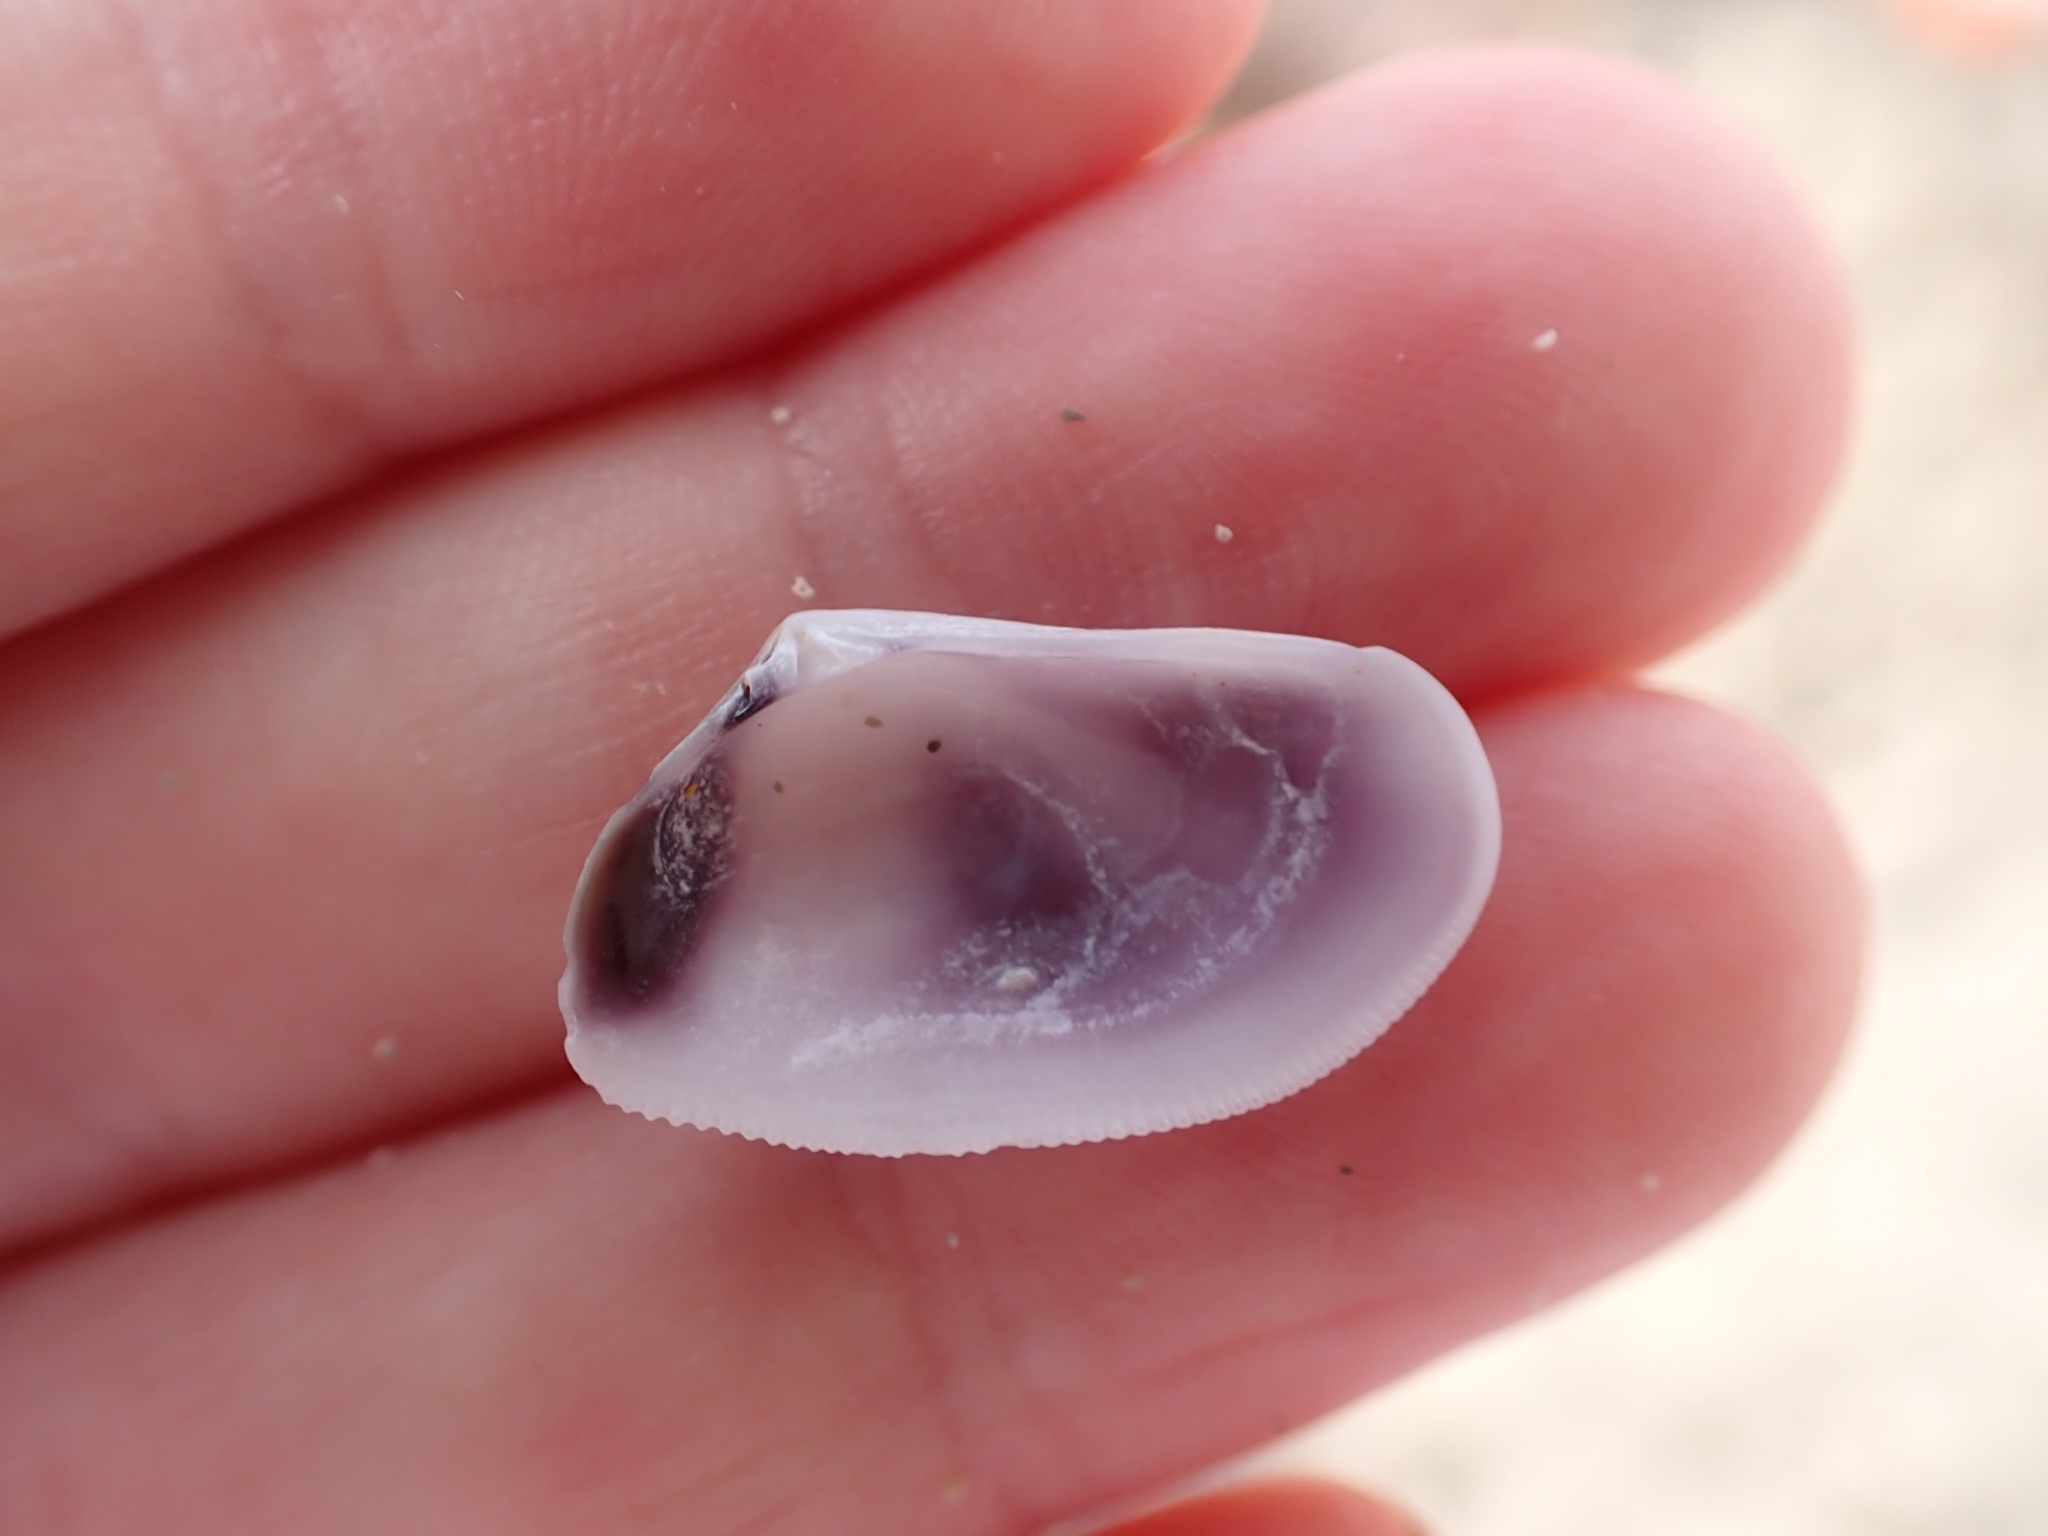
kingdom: Animalia
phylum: Mollusca
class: Bivalvia
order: Cardiida
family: Donacidae
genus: Donax
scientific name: Donax trunculus
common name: Truncate donax
